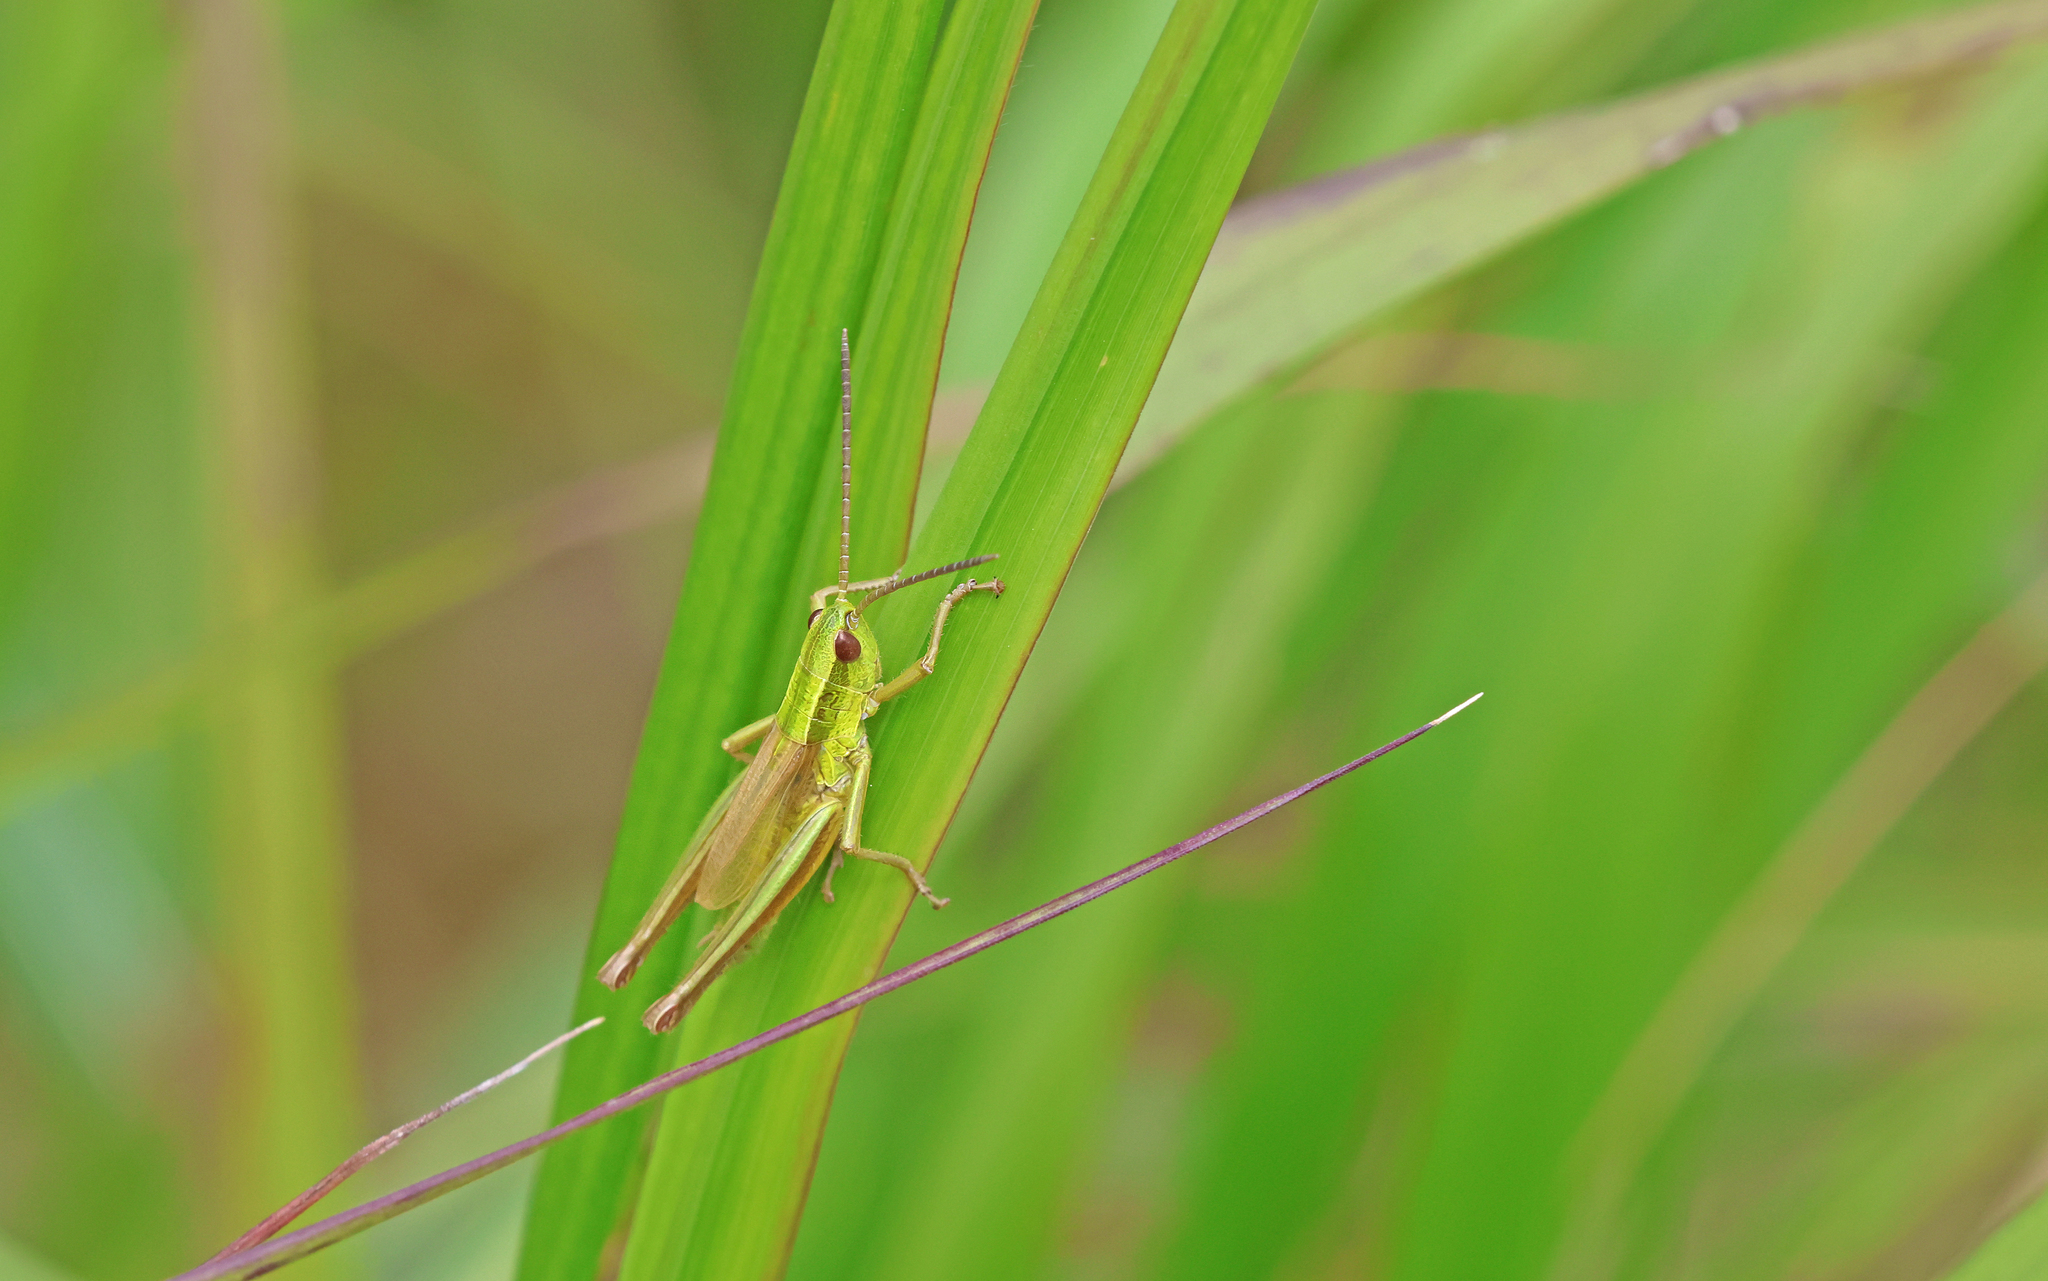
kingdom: Animalia
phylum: Arthropoda
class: Insecta
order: Orthoptera
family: Acrididae
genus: Euthystira
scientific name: Euthystira brachyptera
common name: Small gold grasshopper
